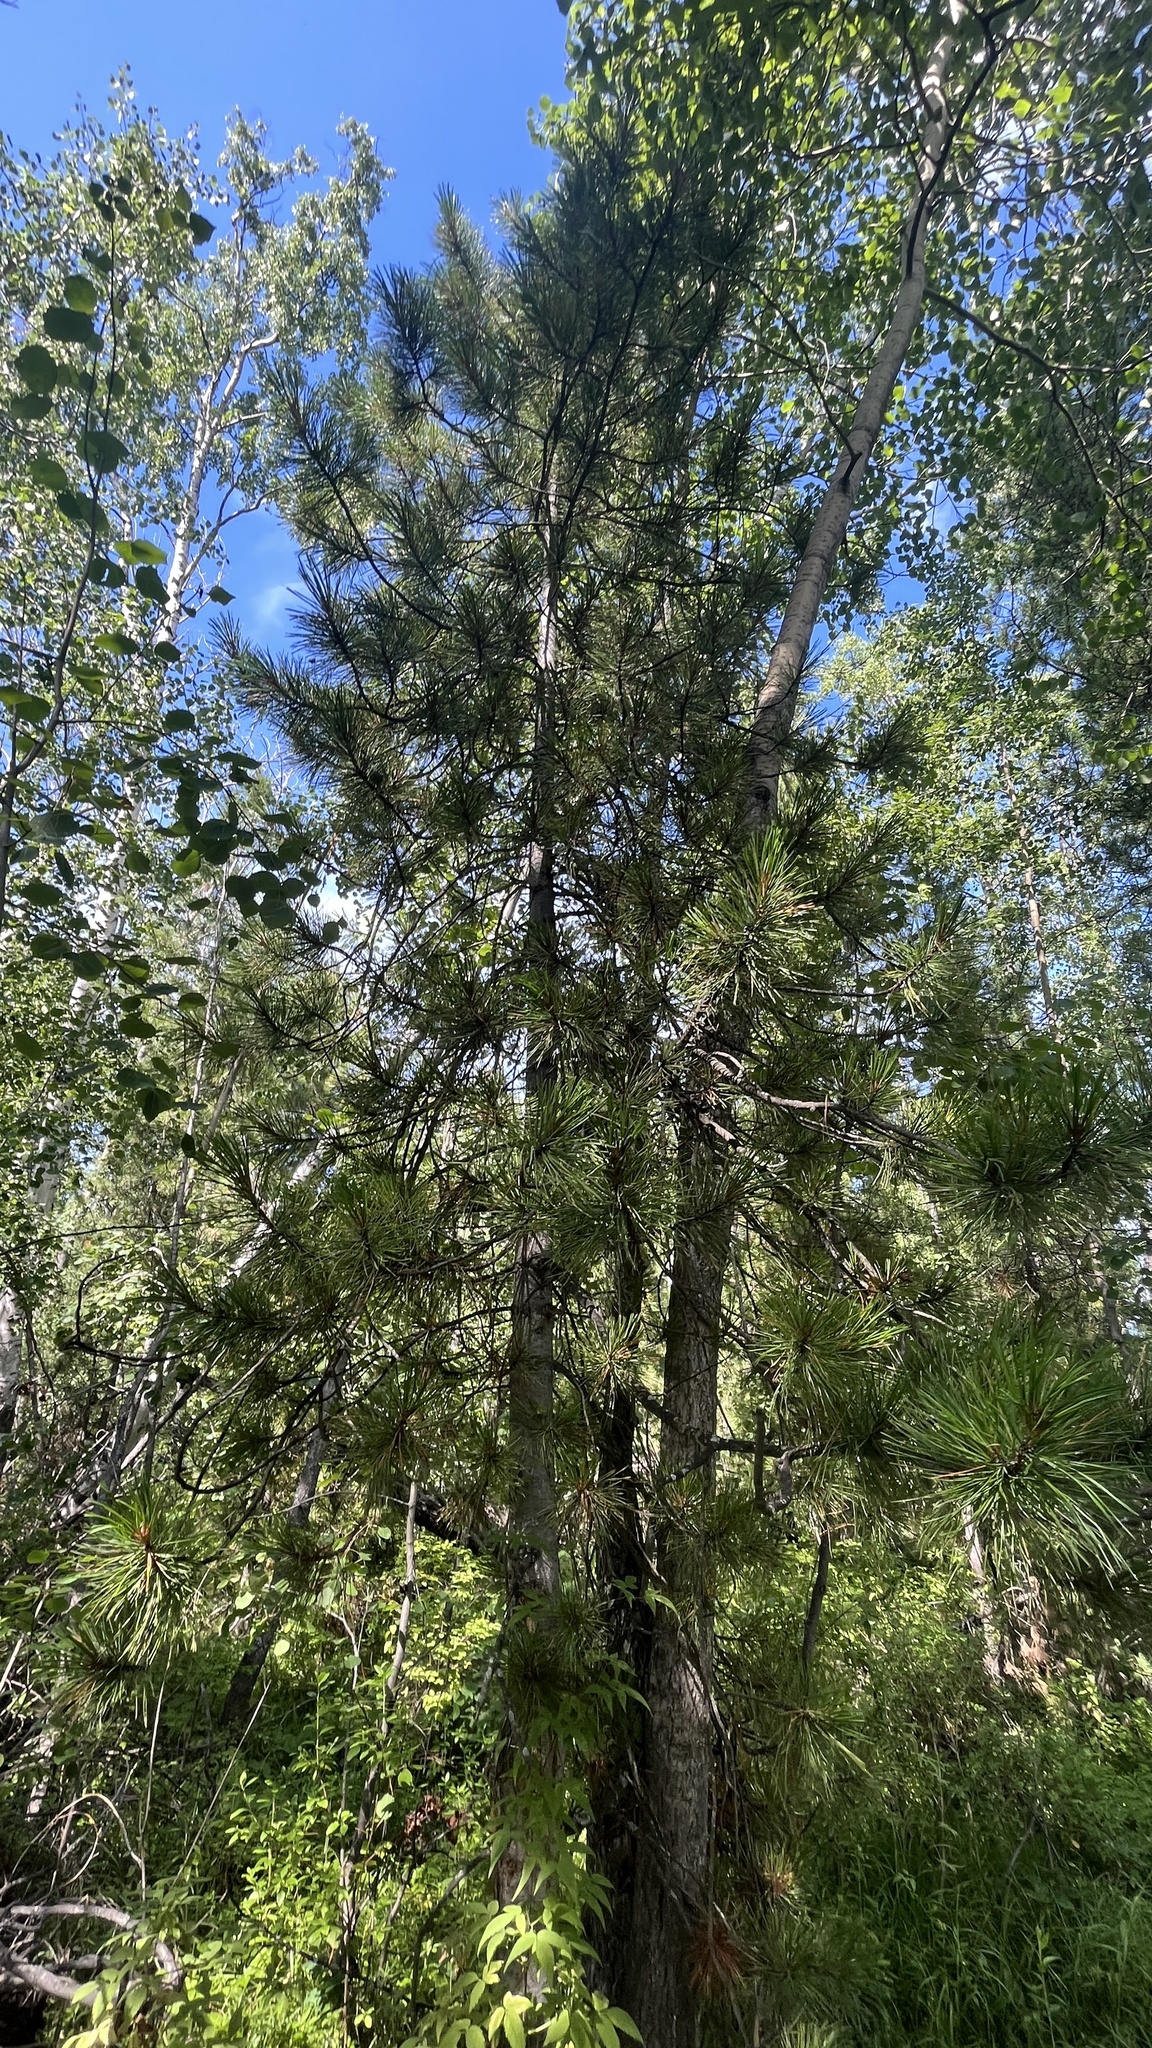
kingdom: Plantae
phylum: Tracheophyta
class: Pinopsida
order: Pinales
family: Pinaceae
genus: Pinus
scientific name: Pinus sibirica
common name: Siberian pine
